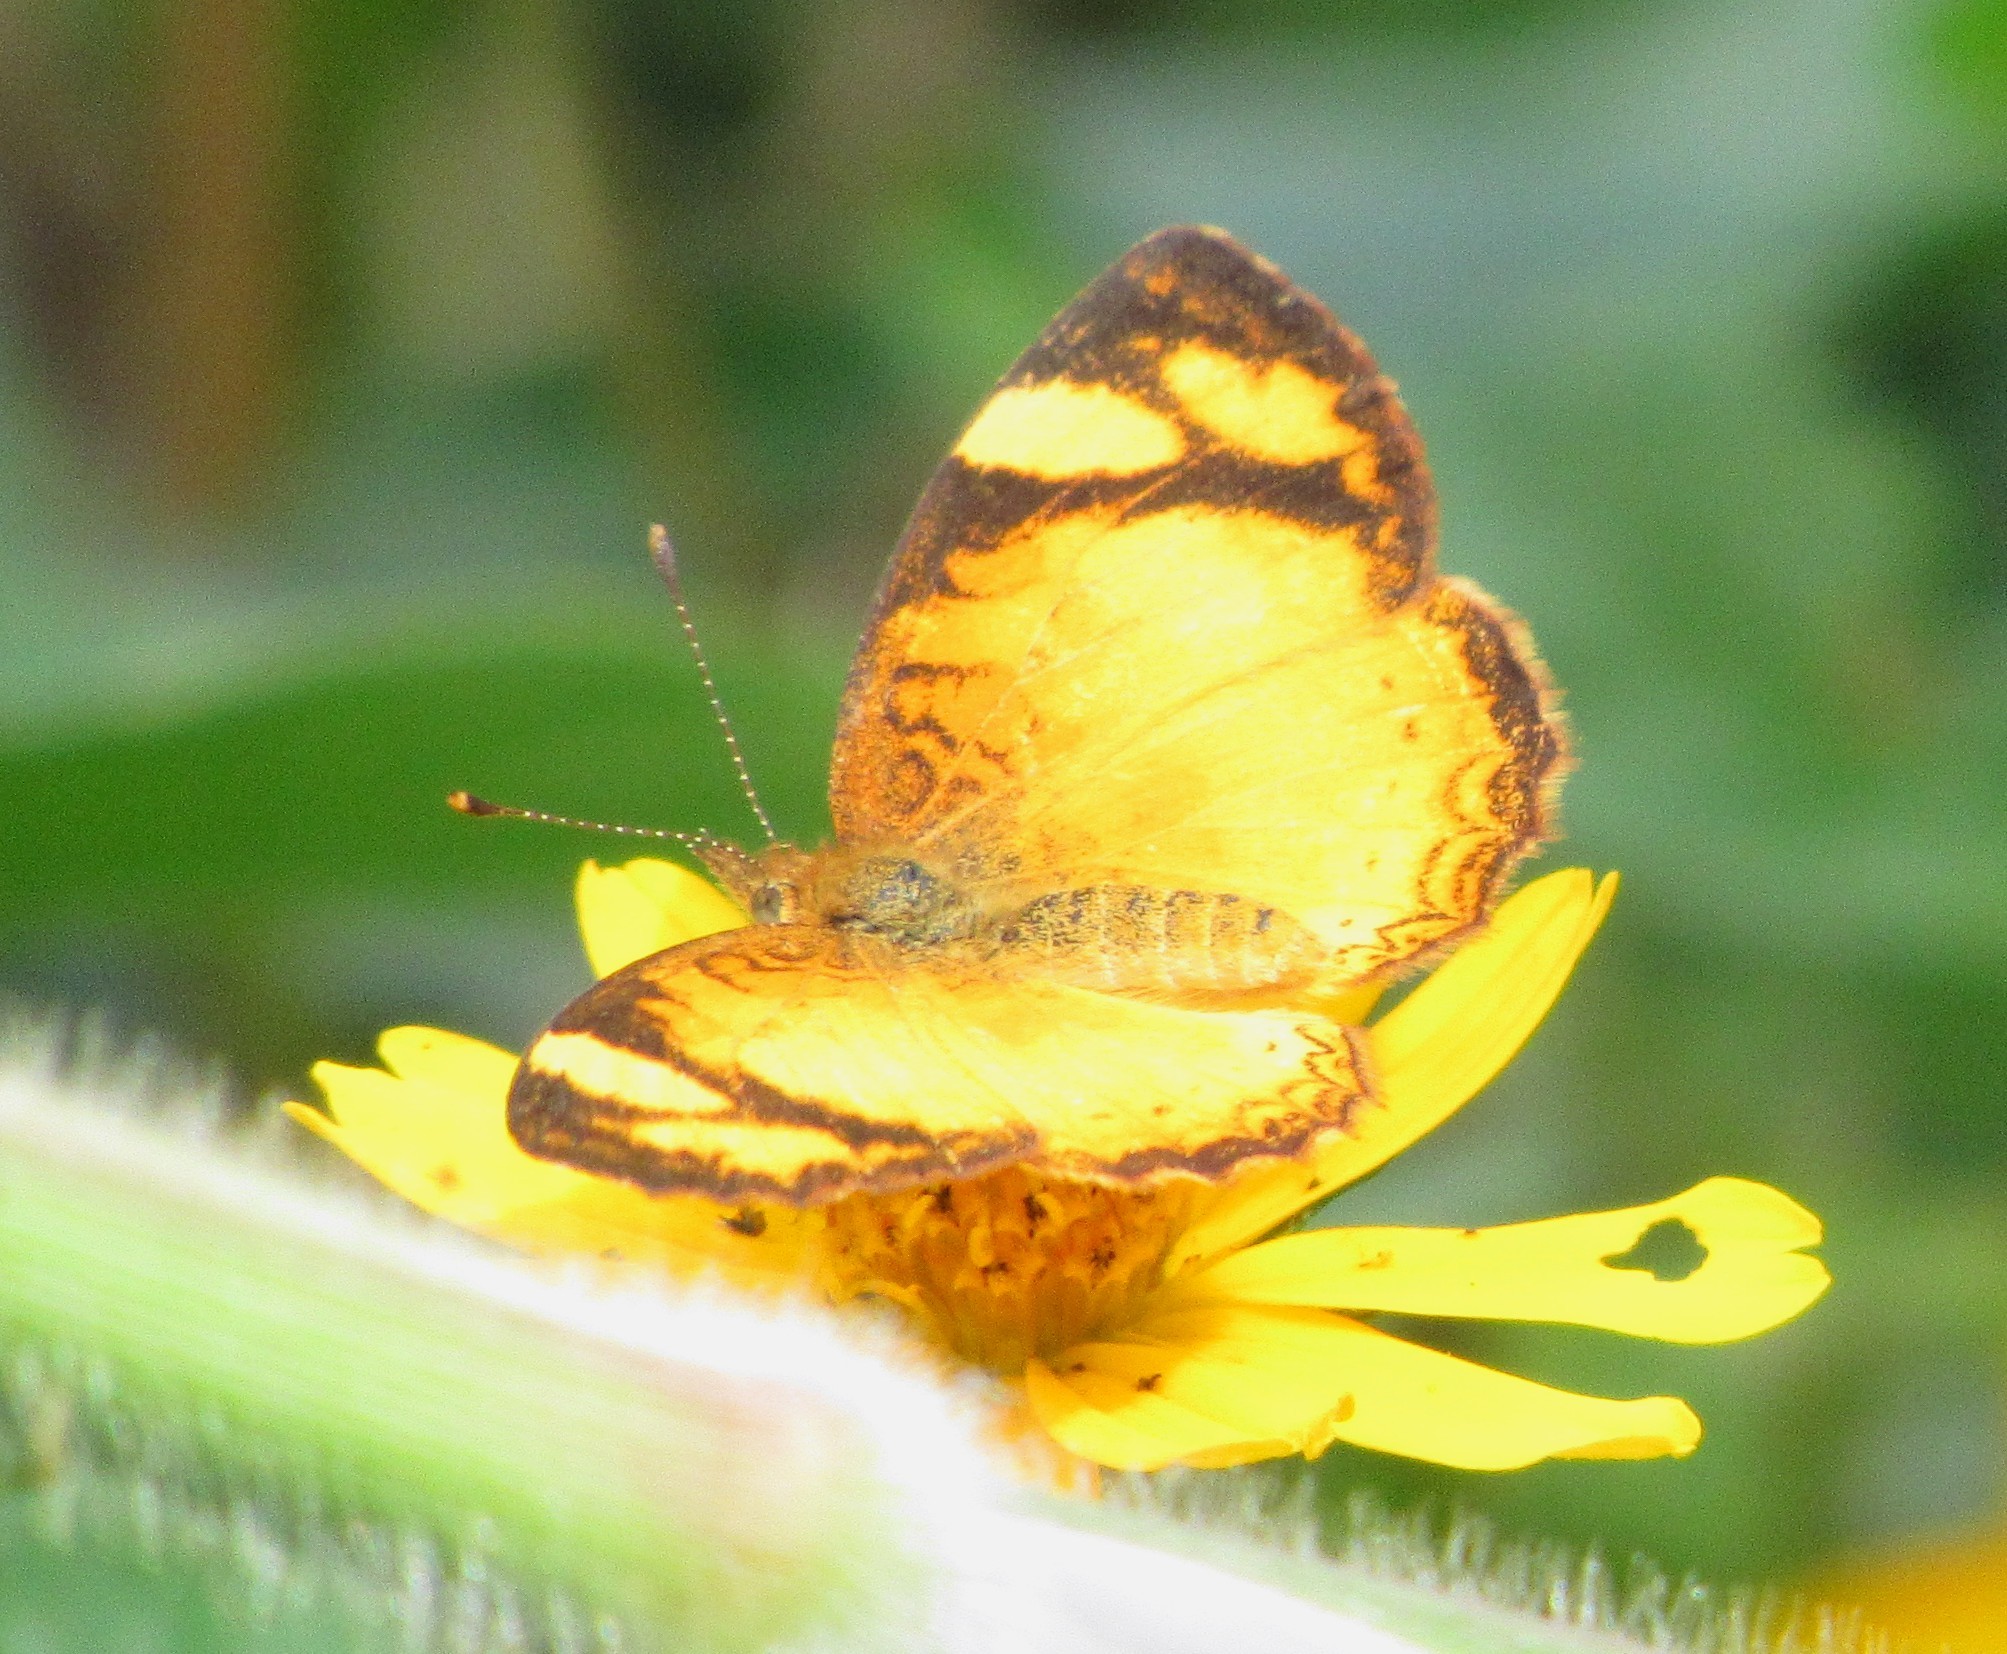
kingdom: Animalia
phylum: Arthropoda
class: Insecta
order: Lepidoptera
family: Nymphalidae
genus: Tegosa
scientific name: Tegosa claudina
